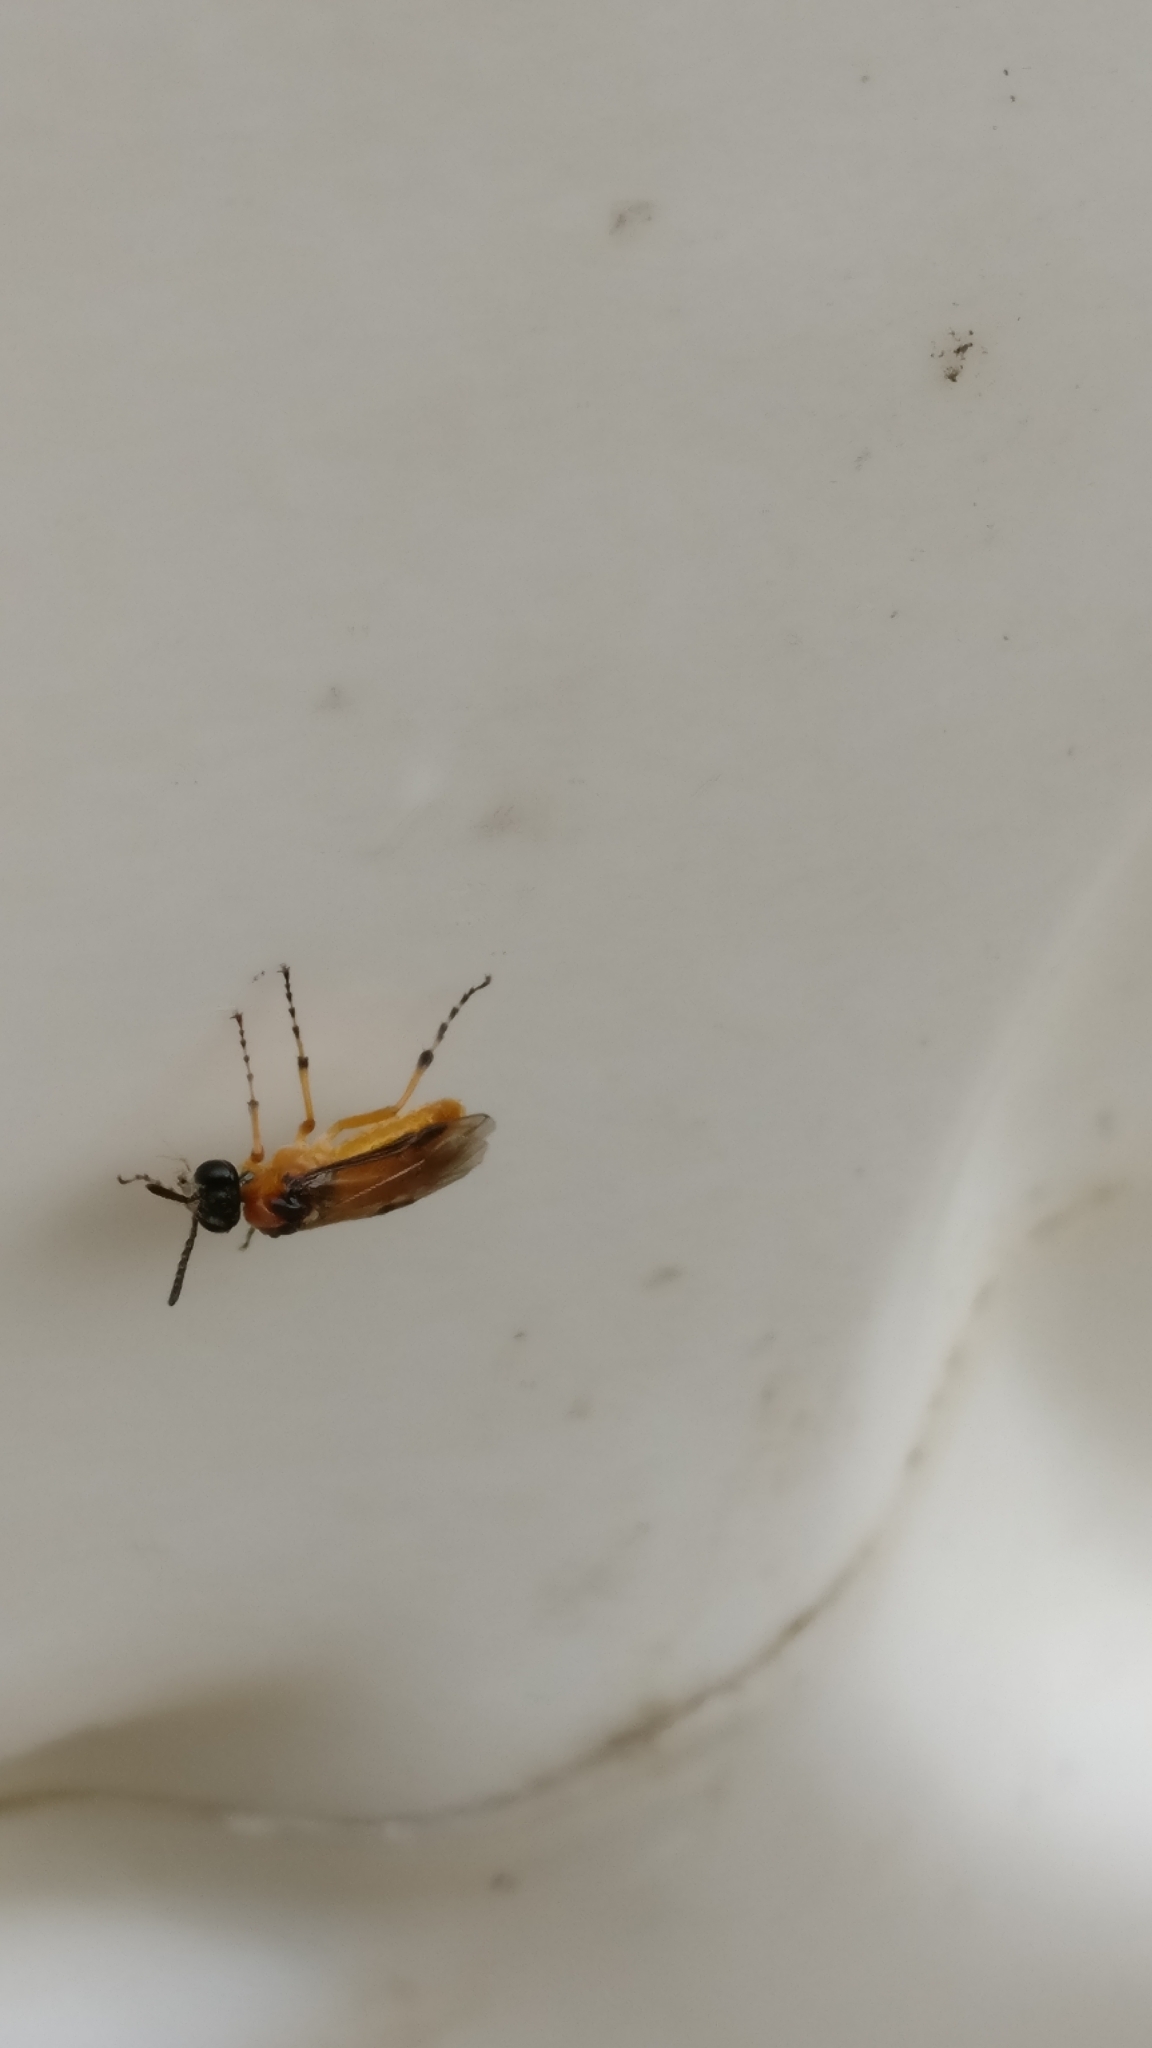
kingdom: Animalia
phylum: Arthropoda
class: Insecta
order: Hymenoptera
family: Tenthredinidae
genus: Athalia
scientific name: Athalia rosae
